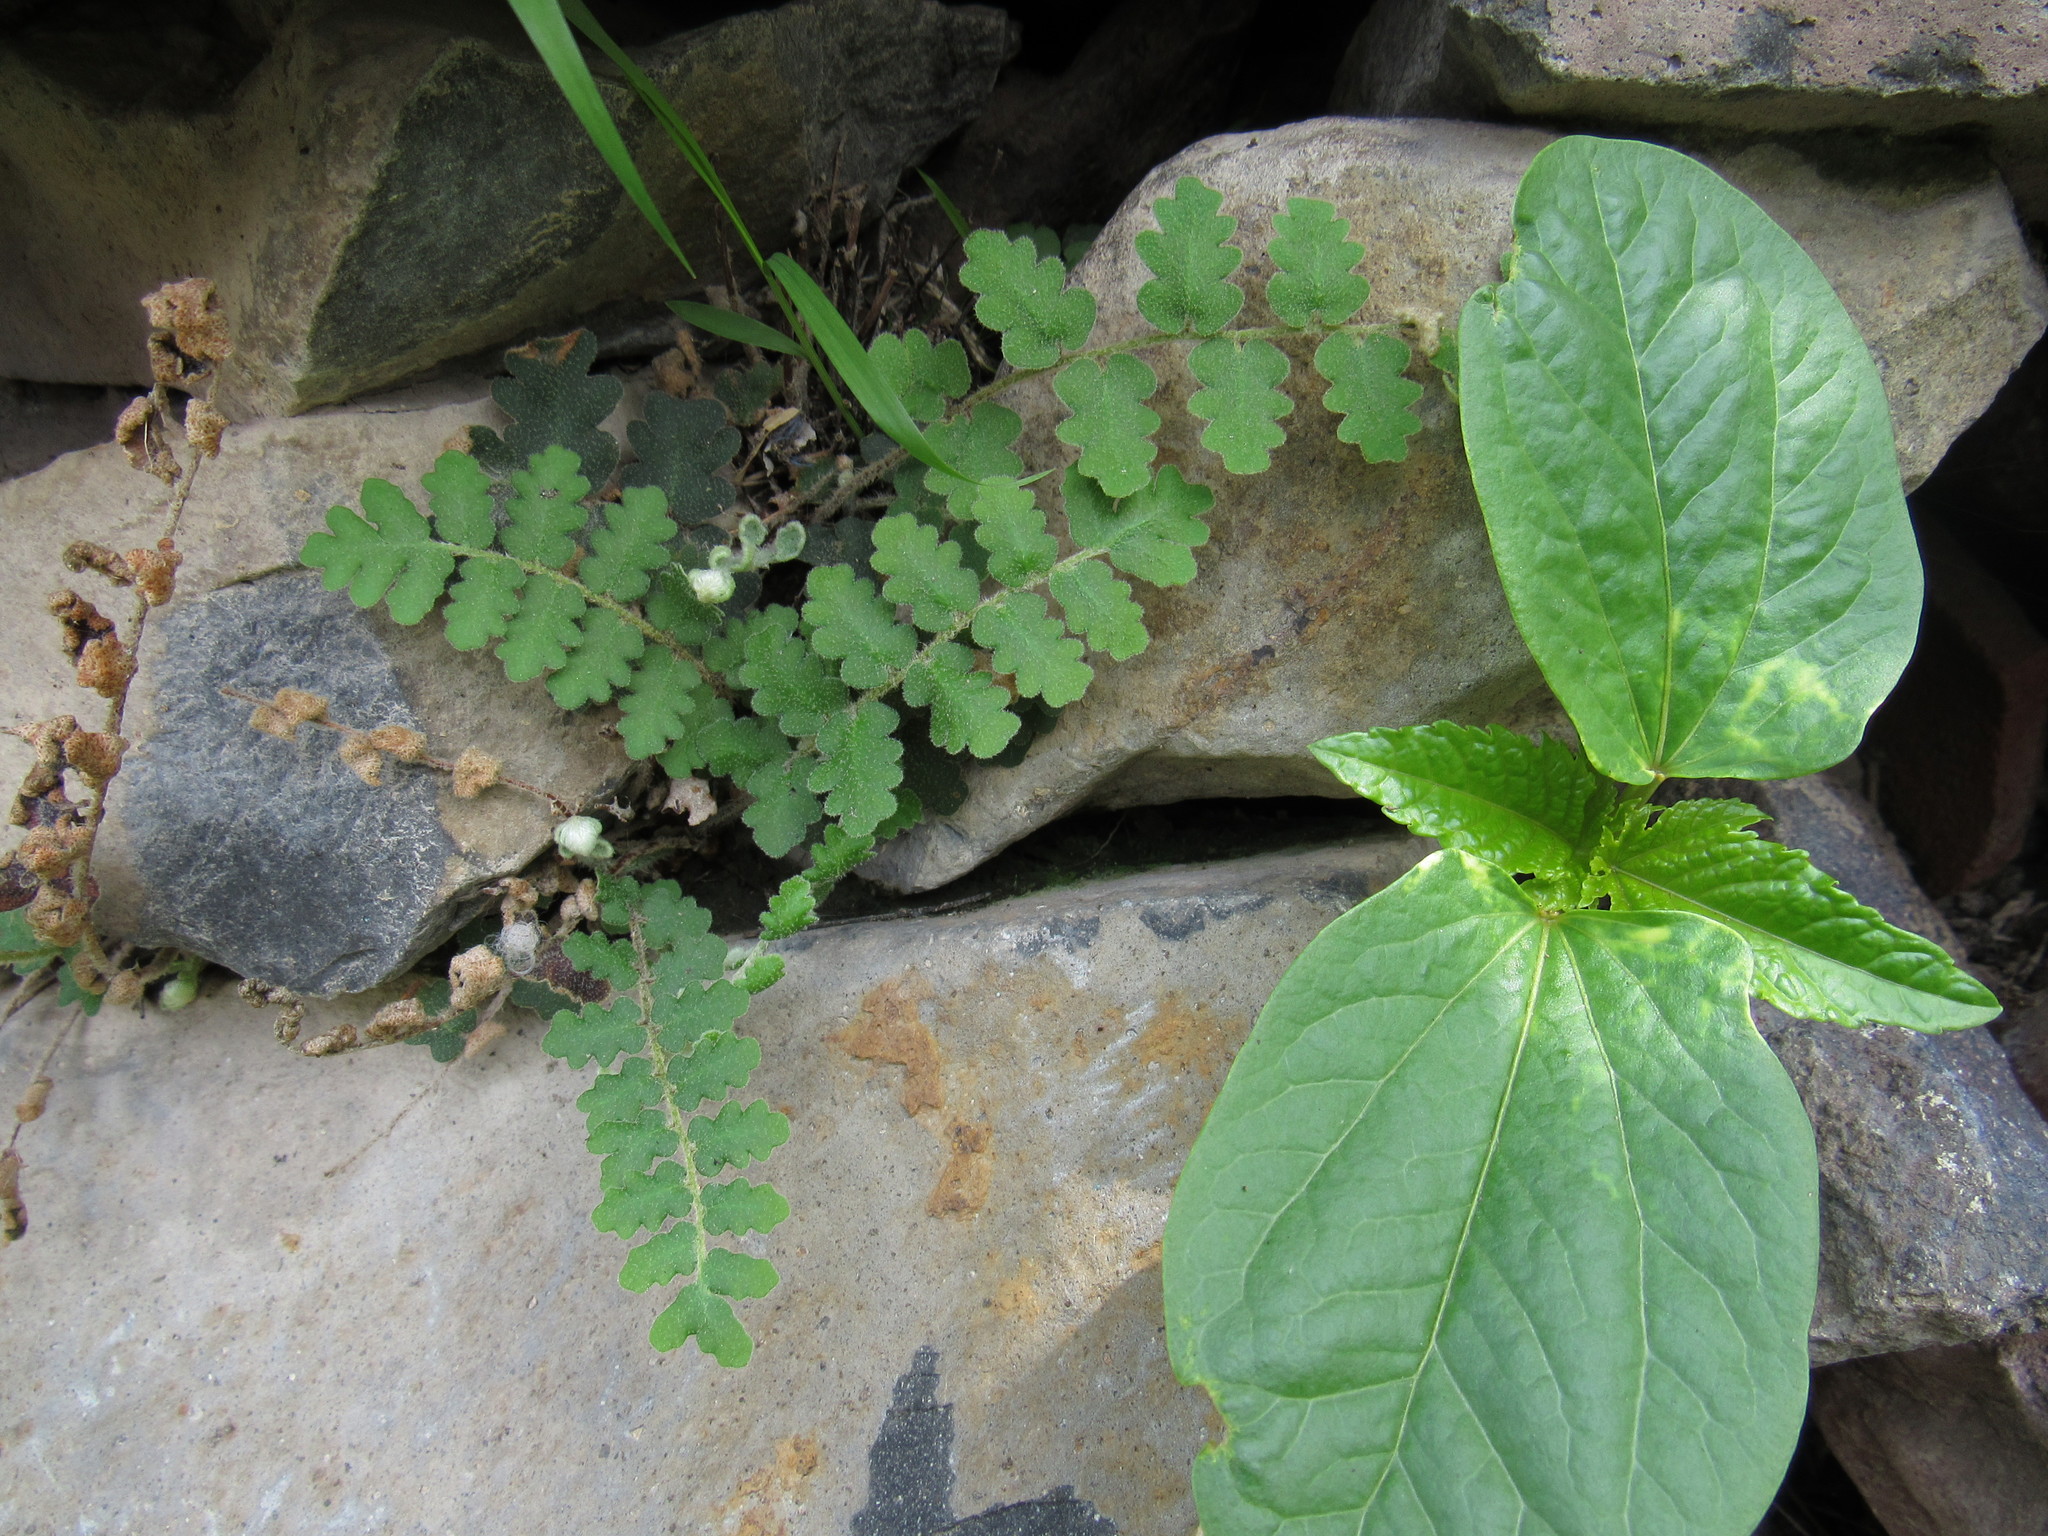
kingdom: Plantae
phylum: Tracheophyta
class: Magnoliopsida
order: Malpighiales
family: Euphorbiaceae
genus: Ricinus
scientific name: Ricinus communis
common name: Castor-oil-plant
